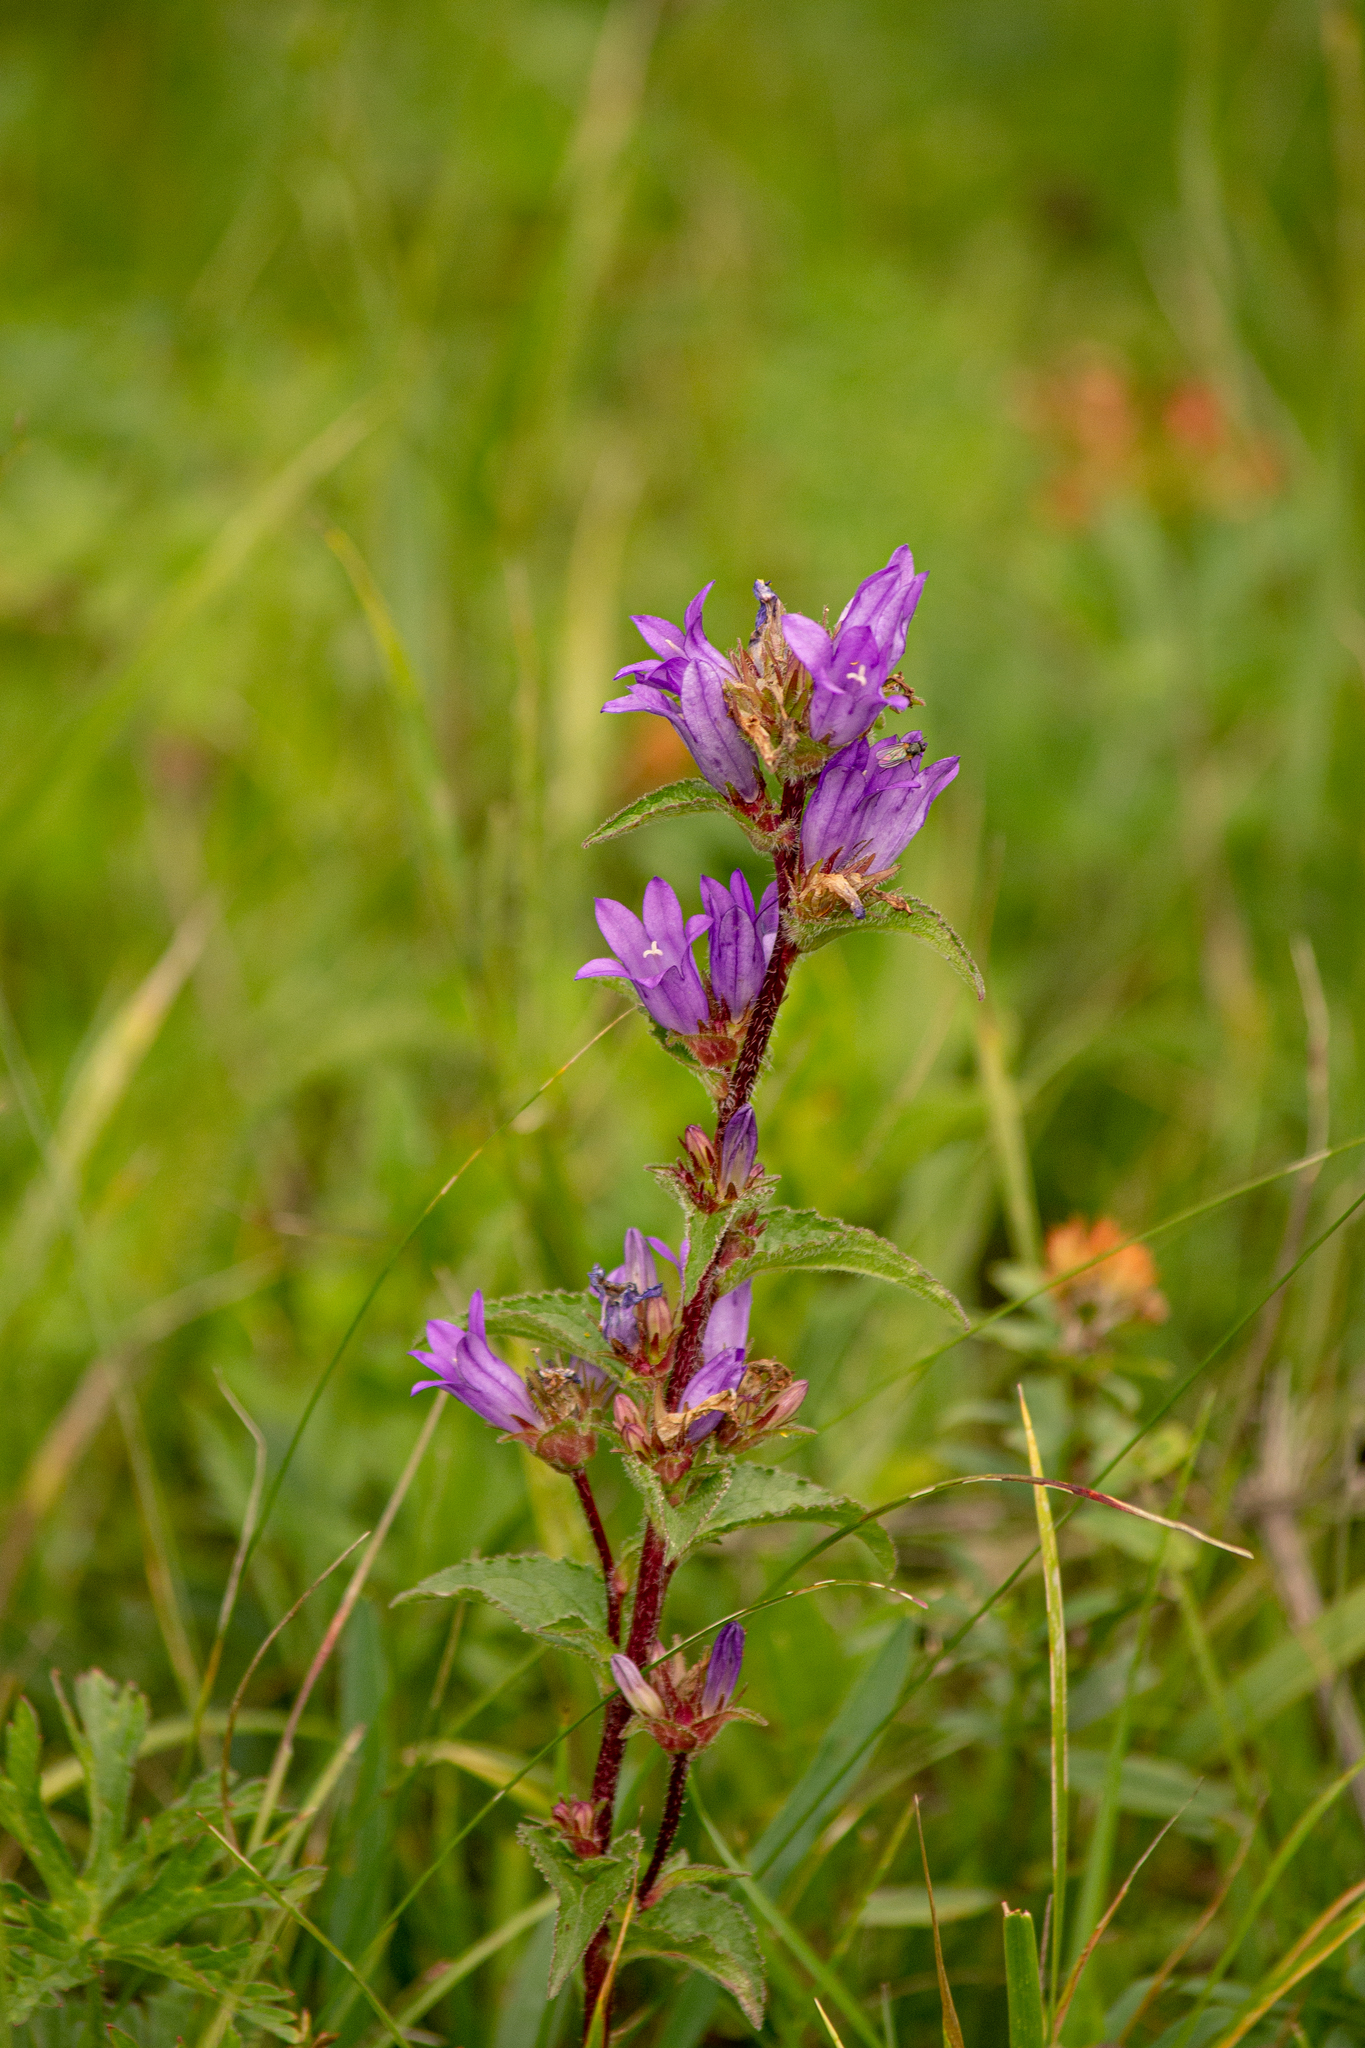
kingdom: Plantae
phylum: Tracheophyta
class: Magnoliopsida
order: Asterales
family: Campanulaceae
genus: Campanula
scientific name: Campanula glomerata
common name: Clustered bellflower
